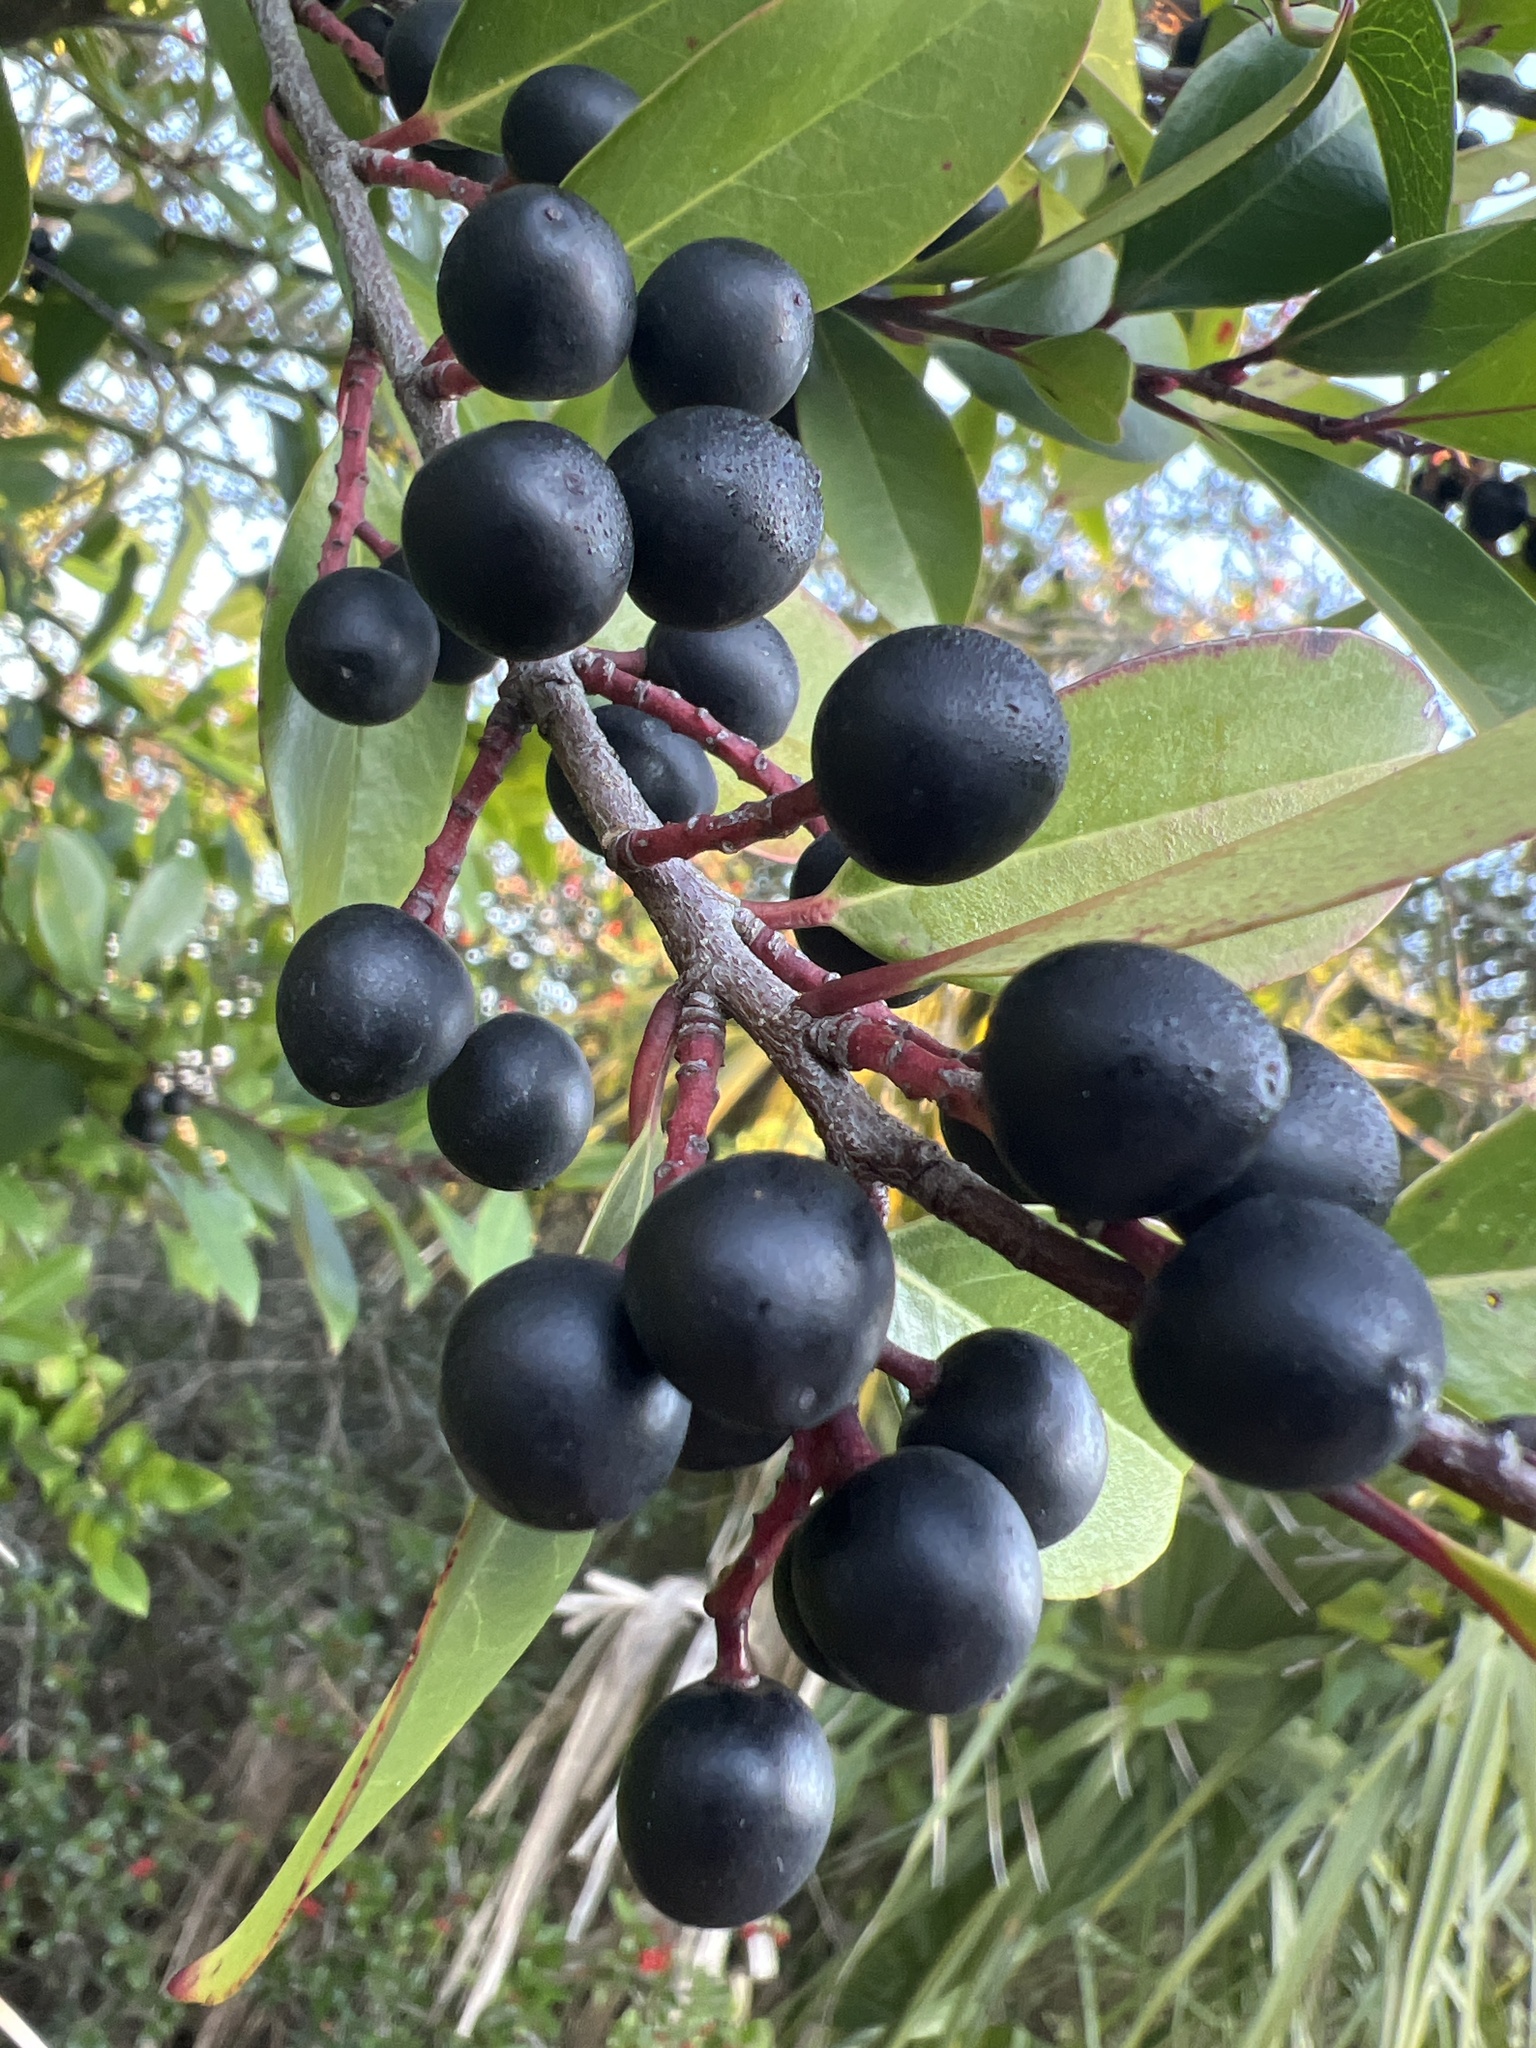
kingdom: Plantae
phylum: Tracheophyta
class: Magnoliopsida
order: Rosales
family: Rosaceae
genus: Prunus
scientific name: Prunus caroliniana
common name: Carolina laurel cherry
